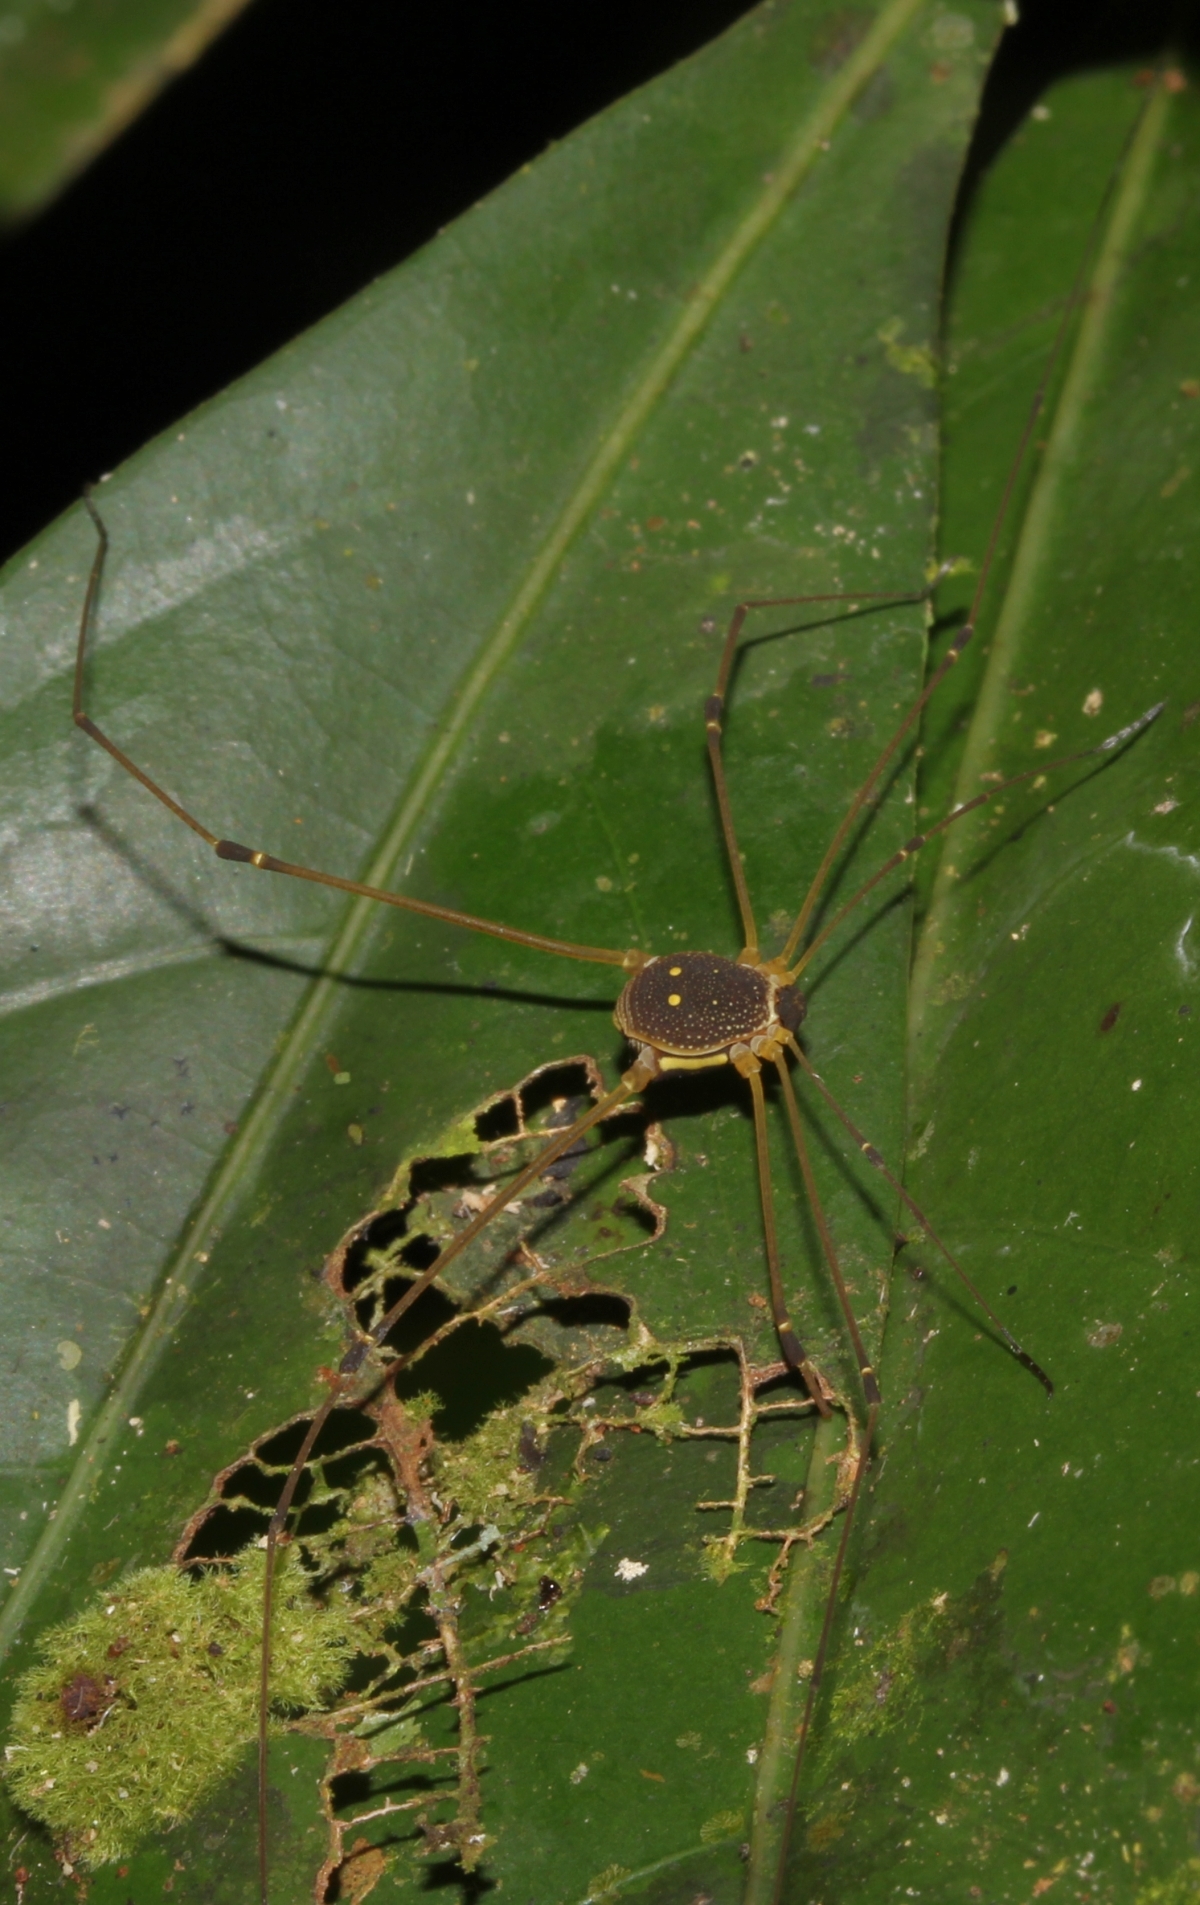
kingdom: Animalia
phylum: Arthropoda
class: Arachnida
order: Opiliones
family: Cosmetidae
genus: Protus
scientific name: Protus bolivari
